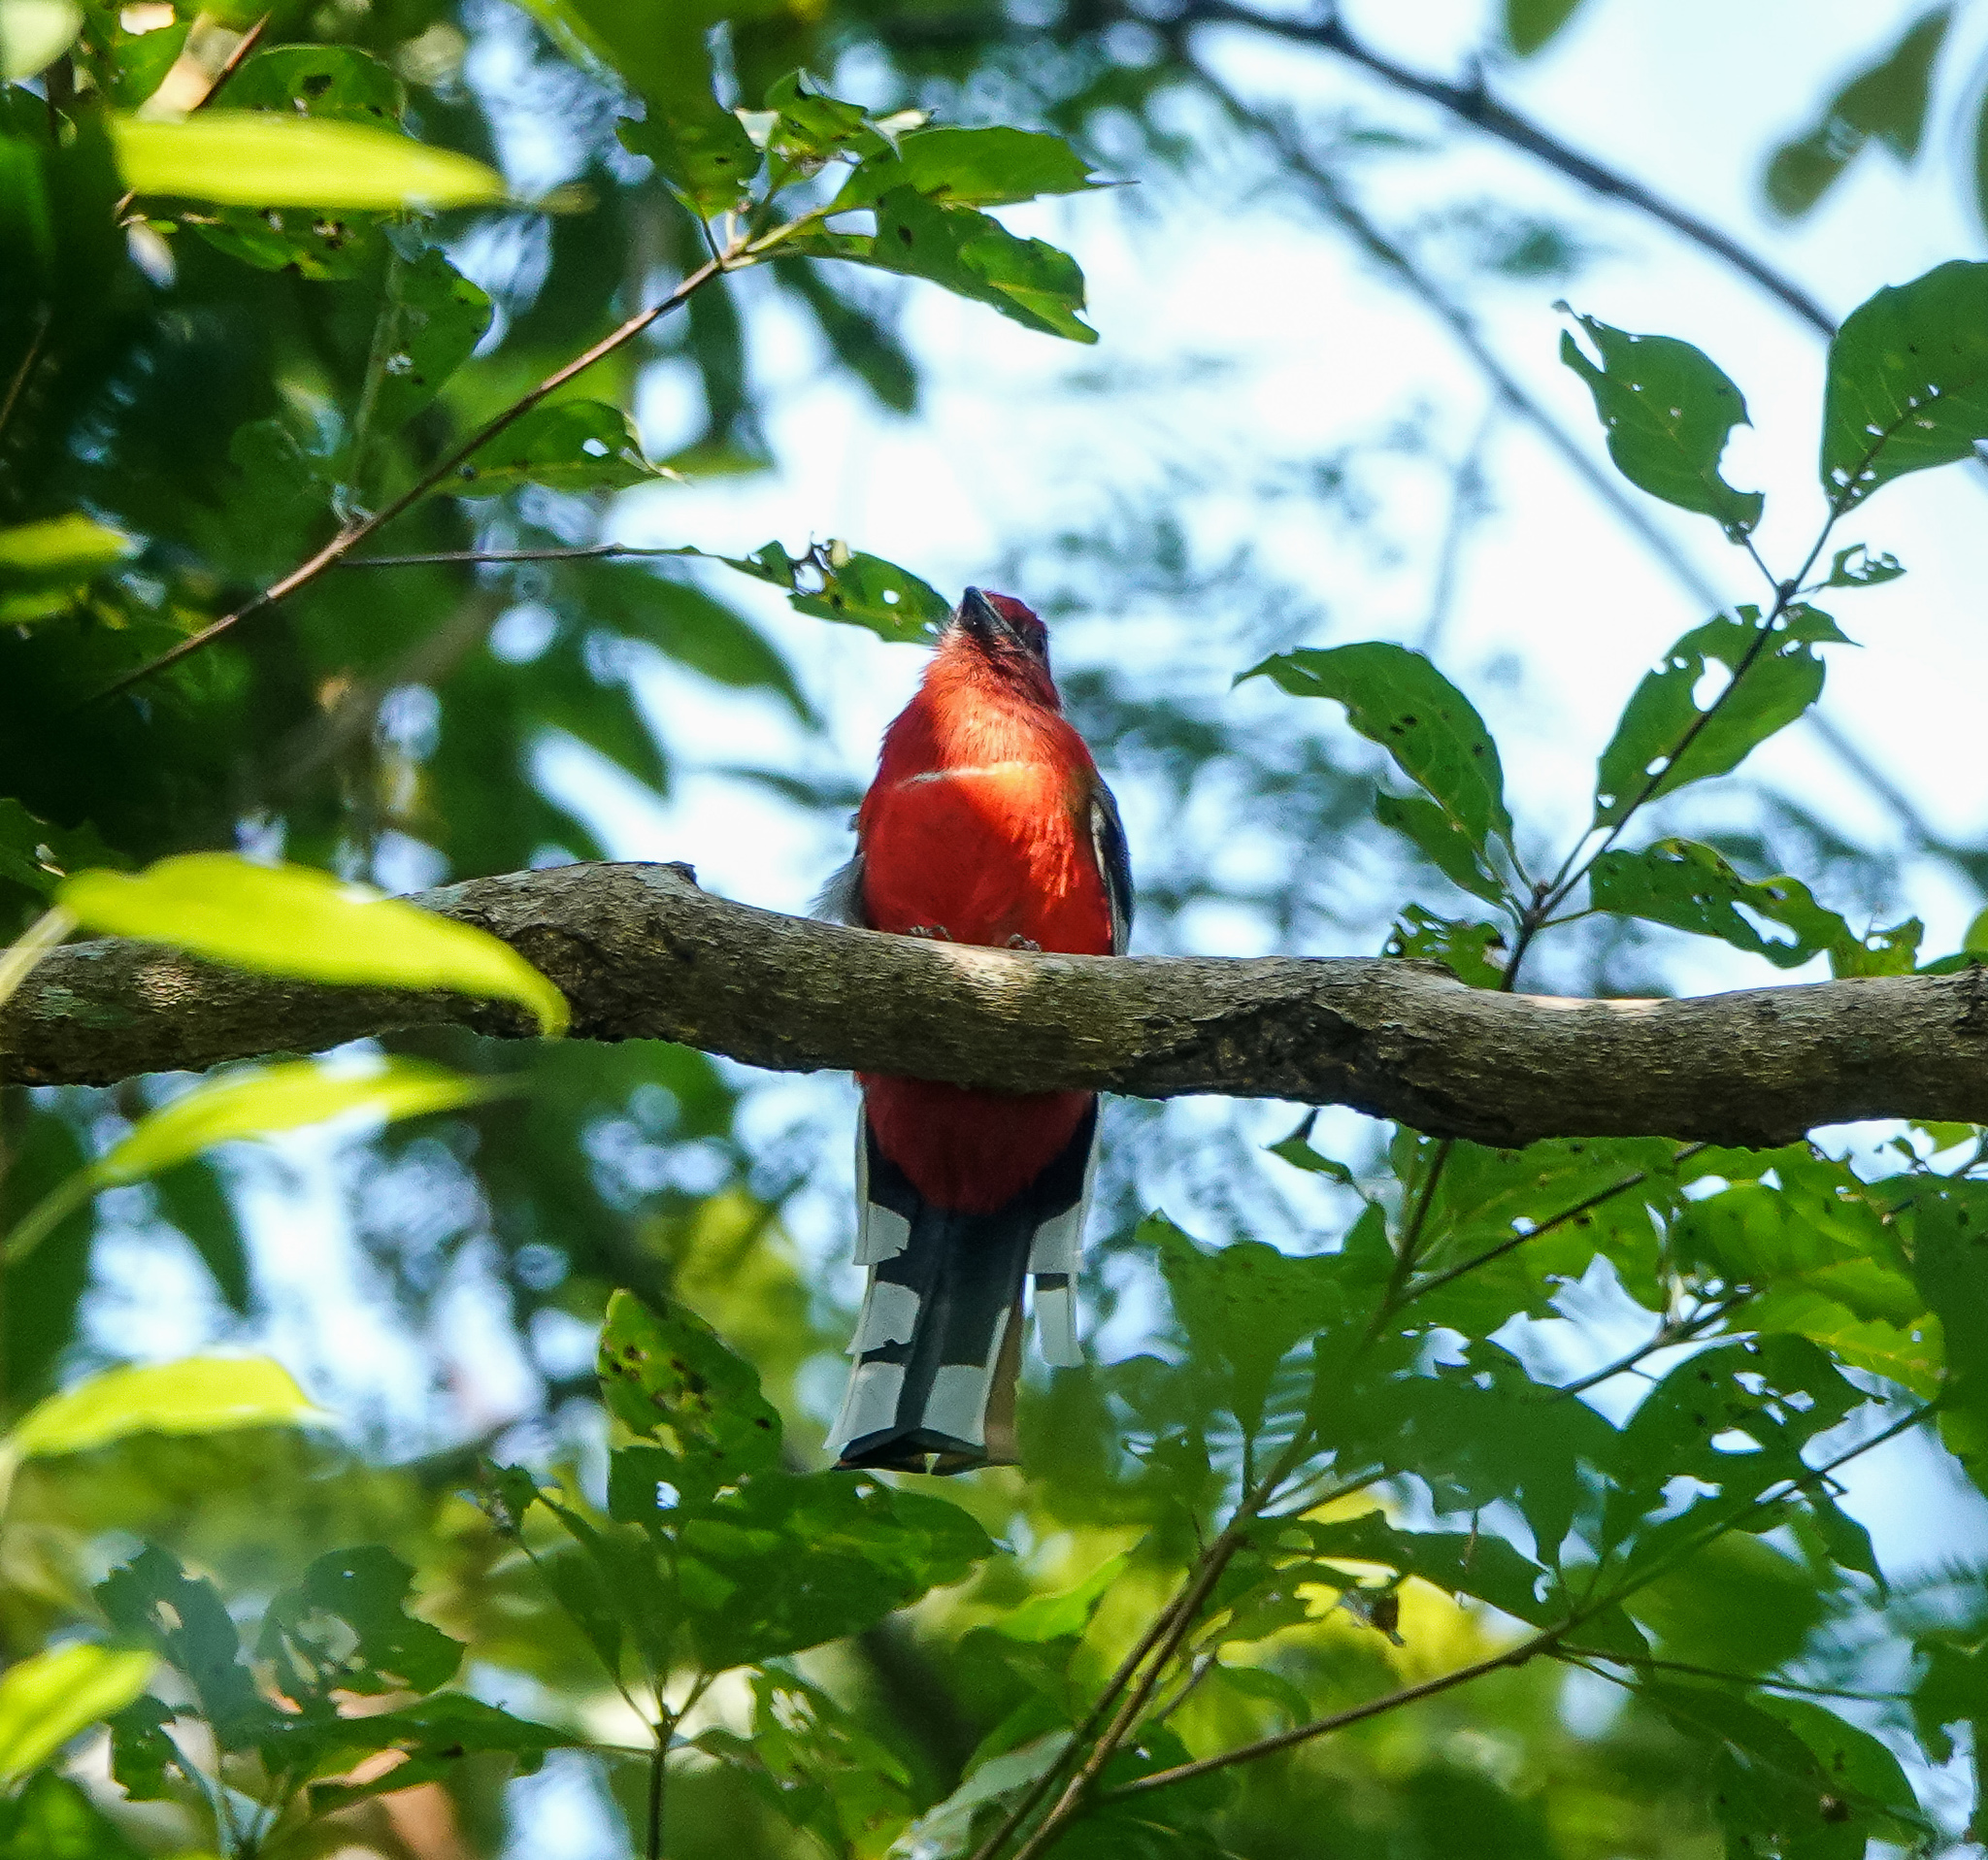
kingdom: Animalia
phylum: Chordata
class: Aves
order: Trogoniformes
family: Trogonidae
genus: Harpactes
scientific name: Harpactes erythrocephalus
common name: Red-headed trogon
